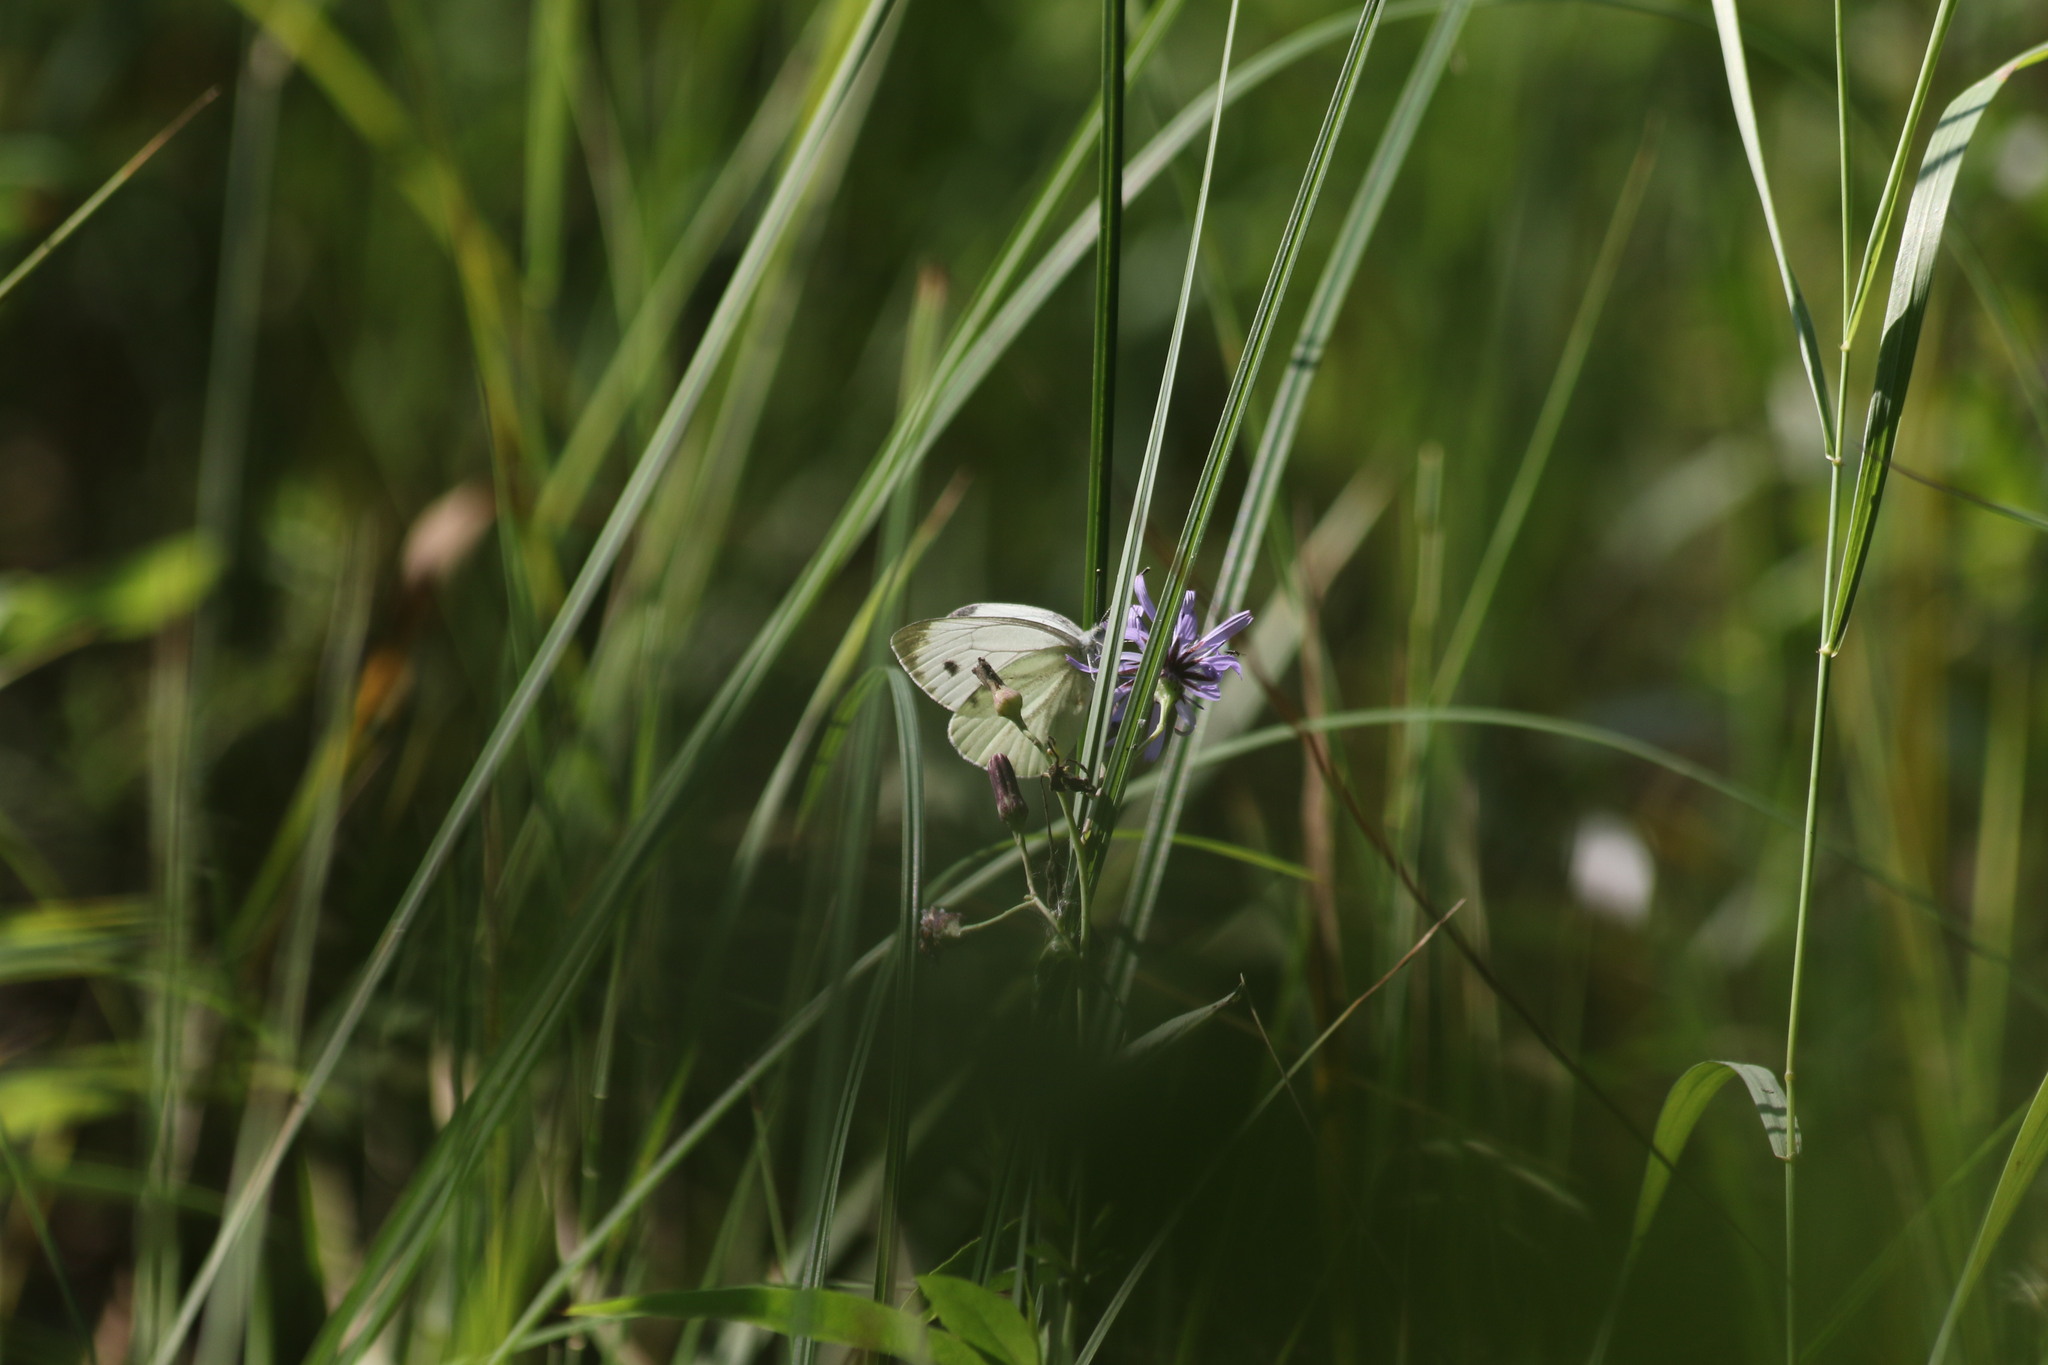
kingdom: Animalia
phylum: Arthropoda
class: Insecta
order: Lepidoptera
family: Pieridae
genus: Pieris
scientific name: Pieris napi
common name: Green-veined white
